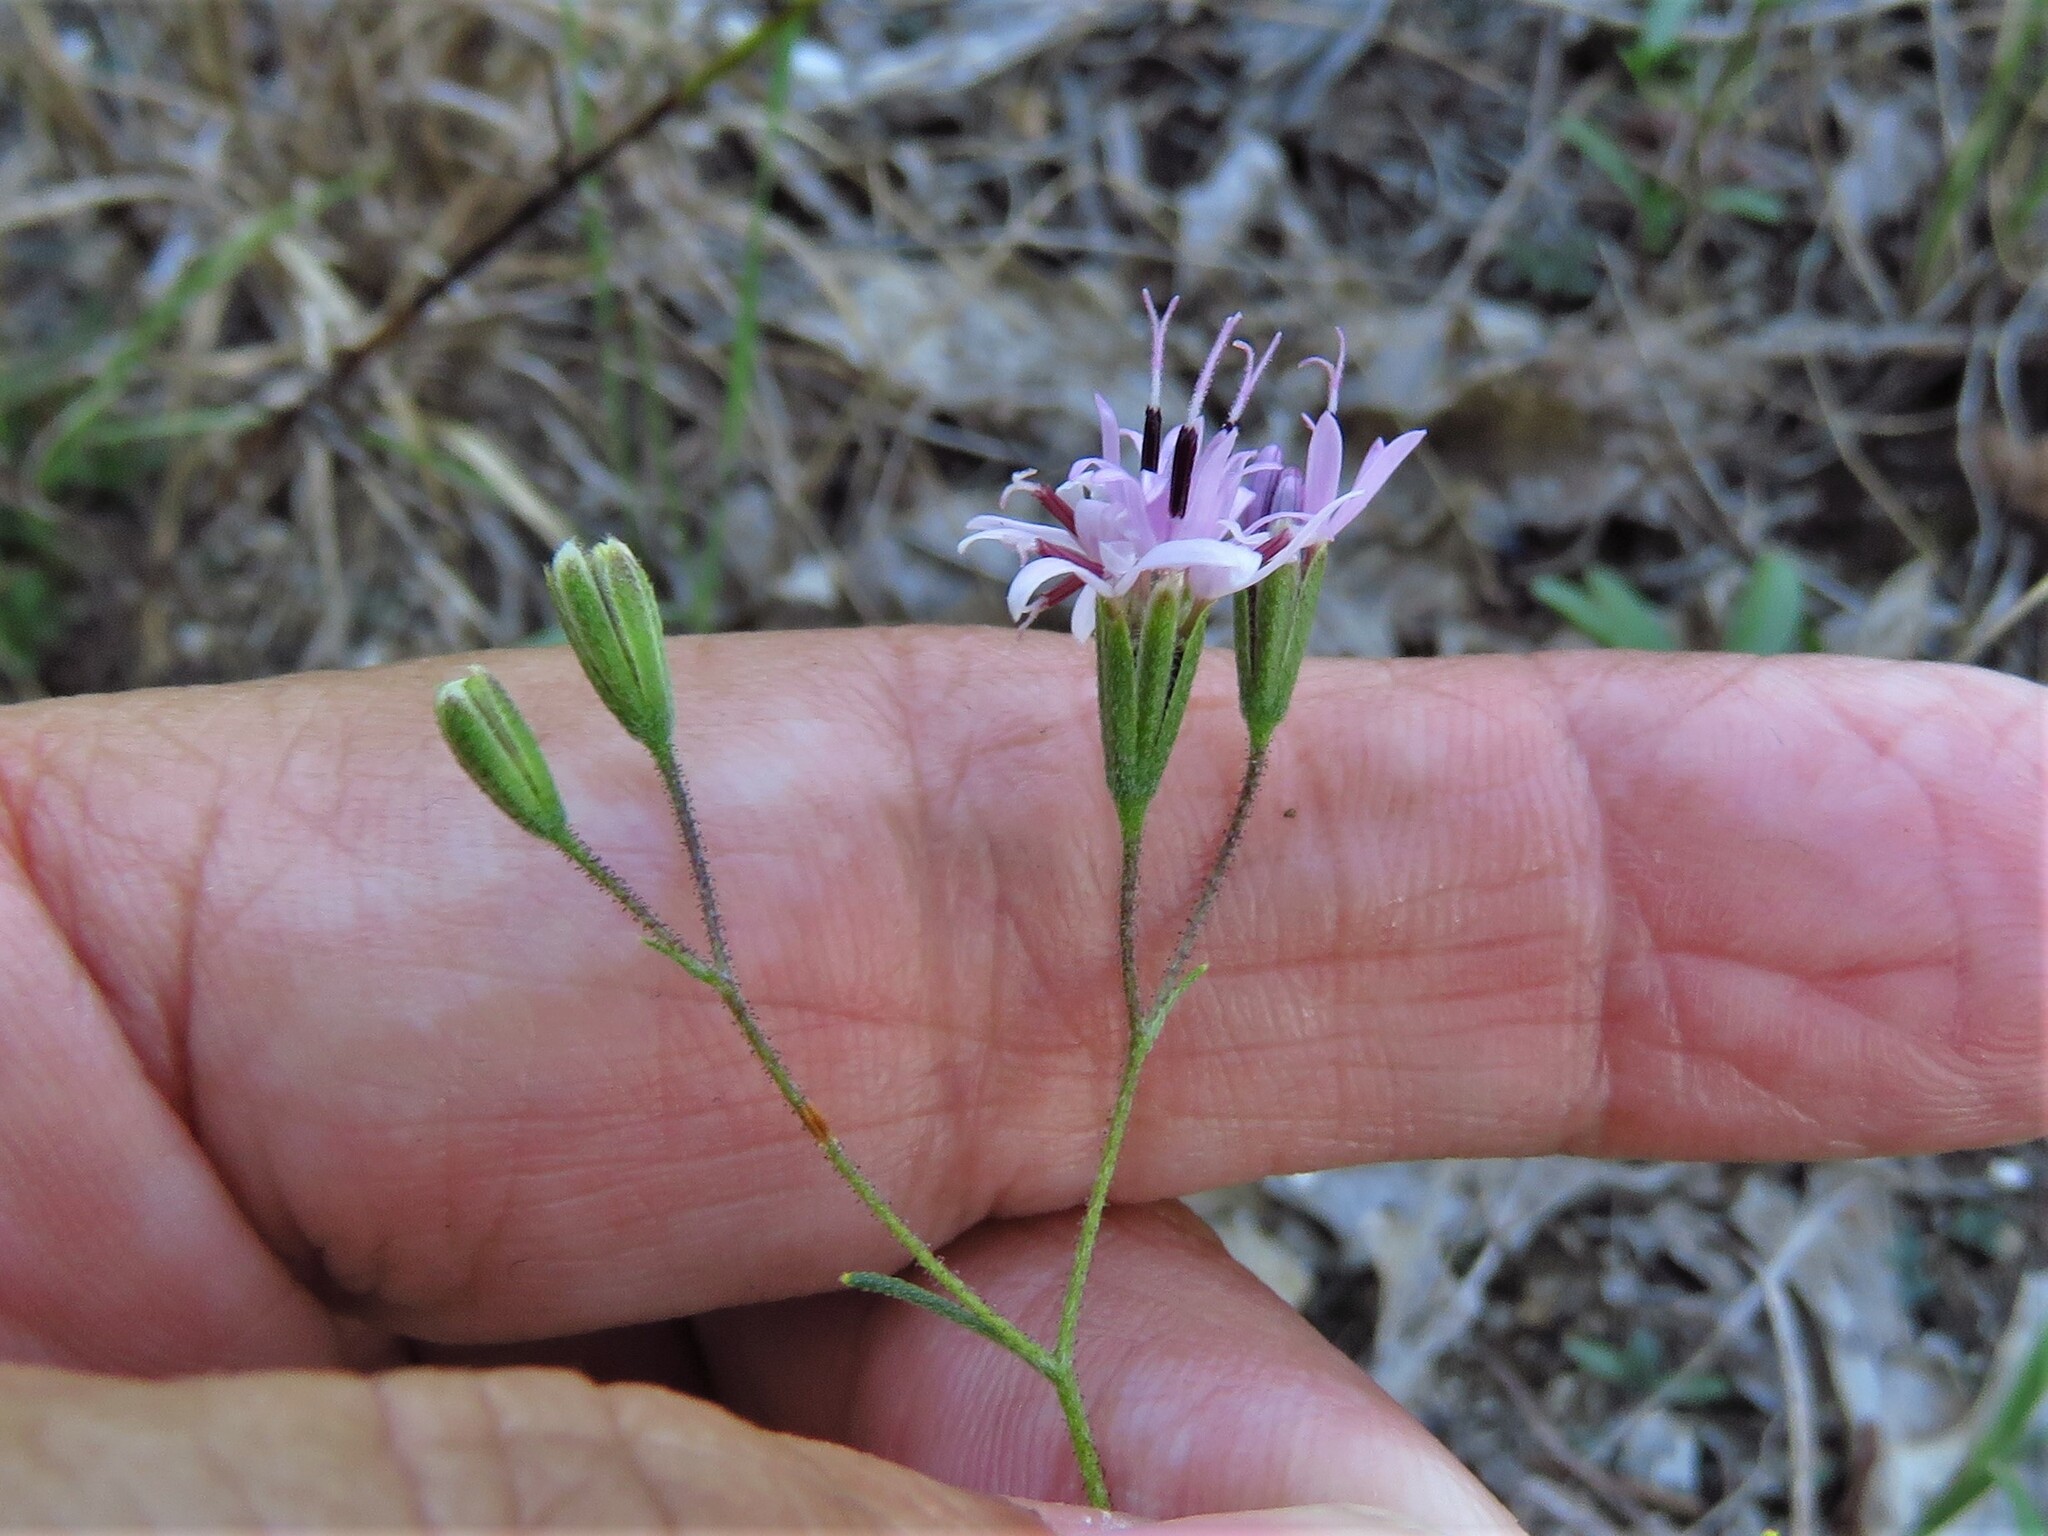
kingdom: Plantae
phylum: Tracheophyta
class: Magnoliopsida
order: Asterales
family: Asteraceae
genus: Palafoxia
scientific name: Palafoxia callosa
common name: Small palafox
